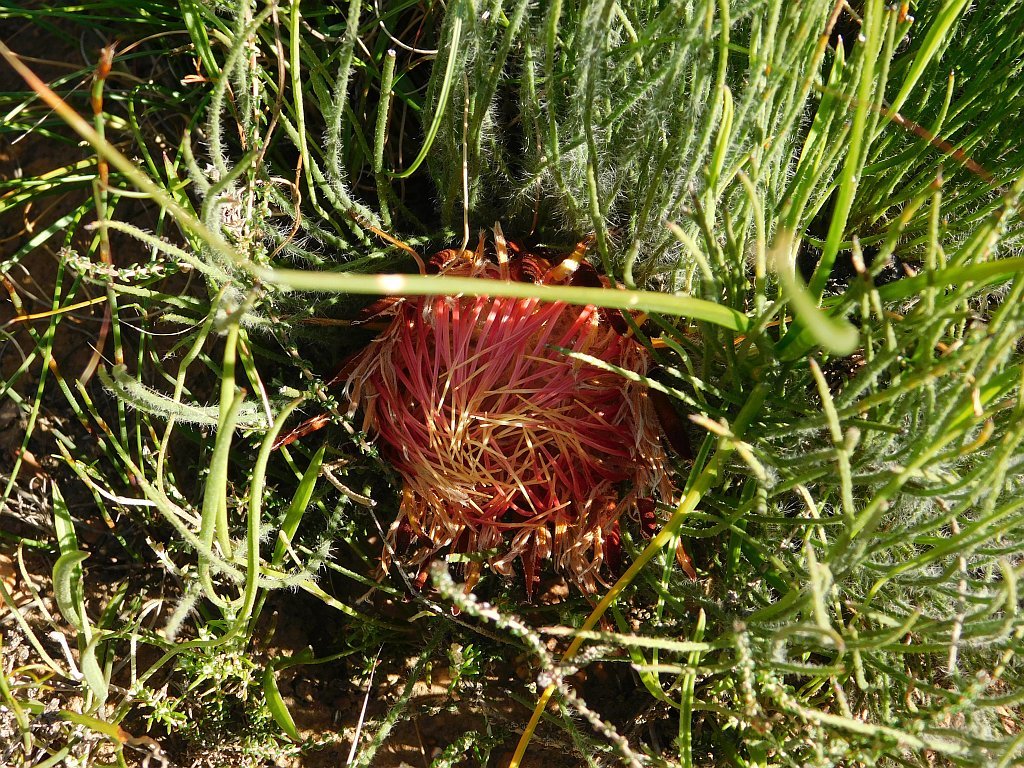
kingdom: Plantae
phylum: Tracheophyta
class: Magnoliopsida
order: Proteales
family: Proteaceae
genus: Protea
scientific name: Protea restionifolia
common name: Reed-leaf sugarbush
